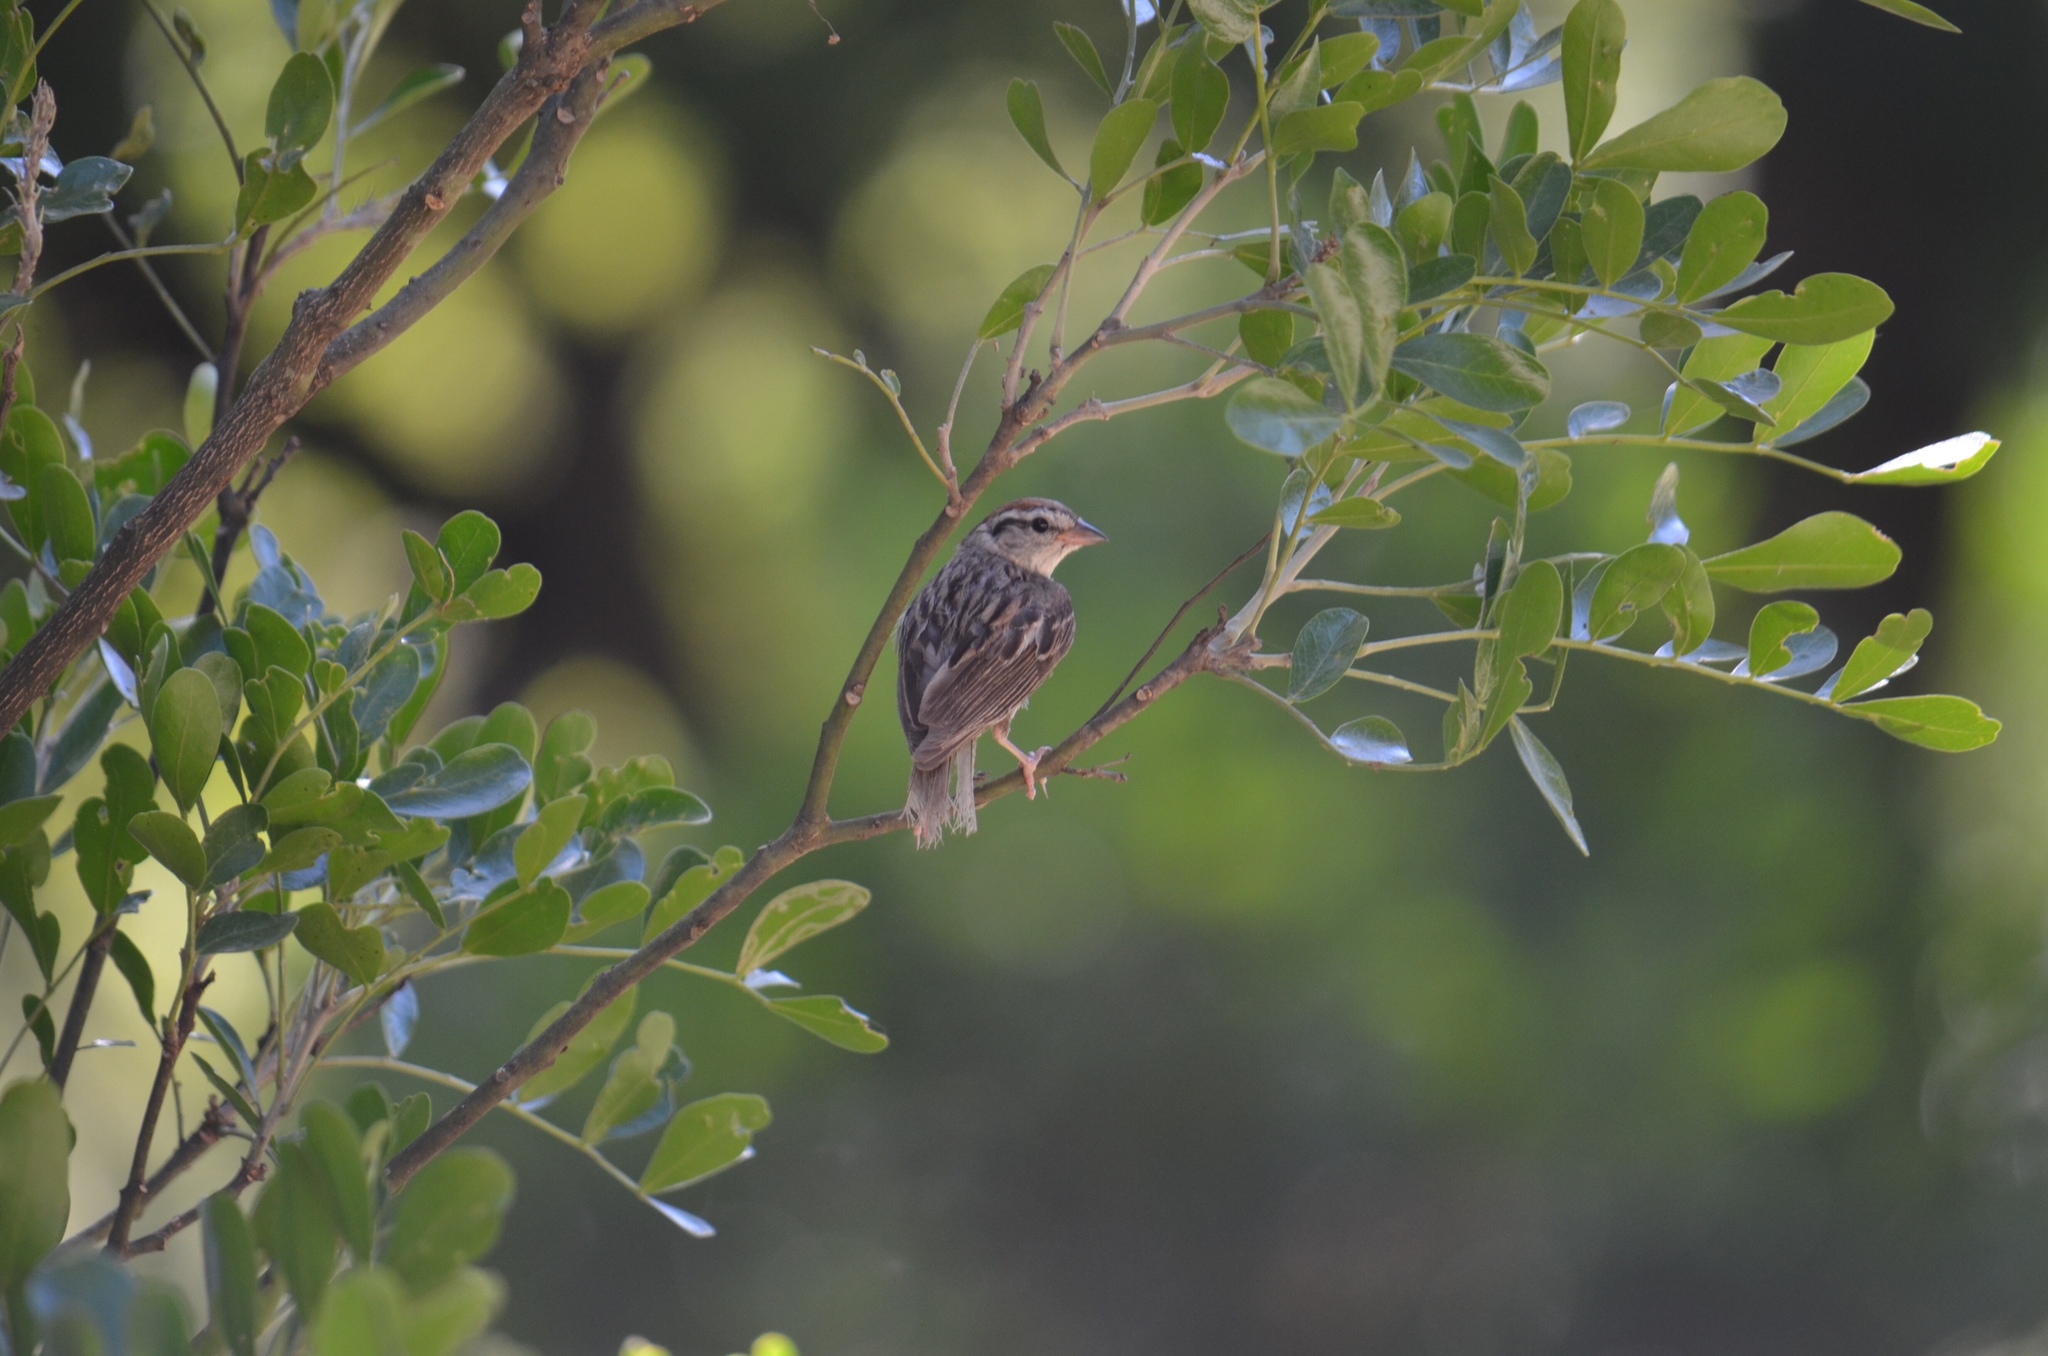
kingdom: Animalia
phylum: Chordata
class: Aves
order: Passeriformes
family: Passerellidae
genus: Spizella
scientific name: Spizella passerina
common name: Chipping sparrow
